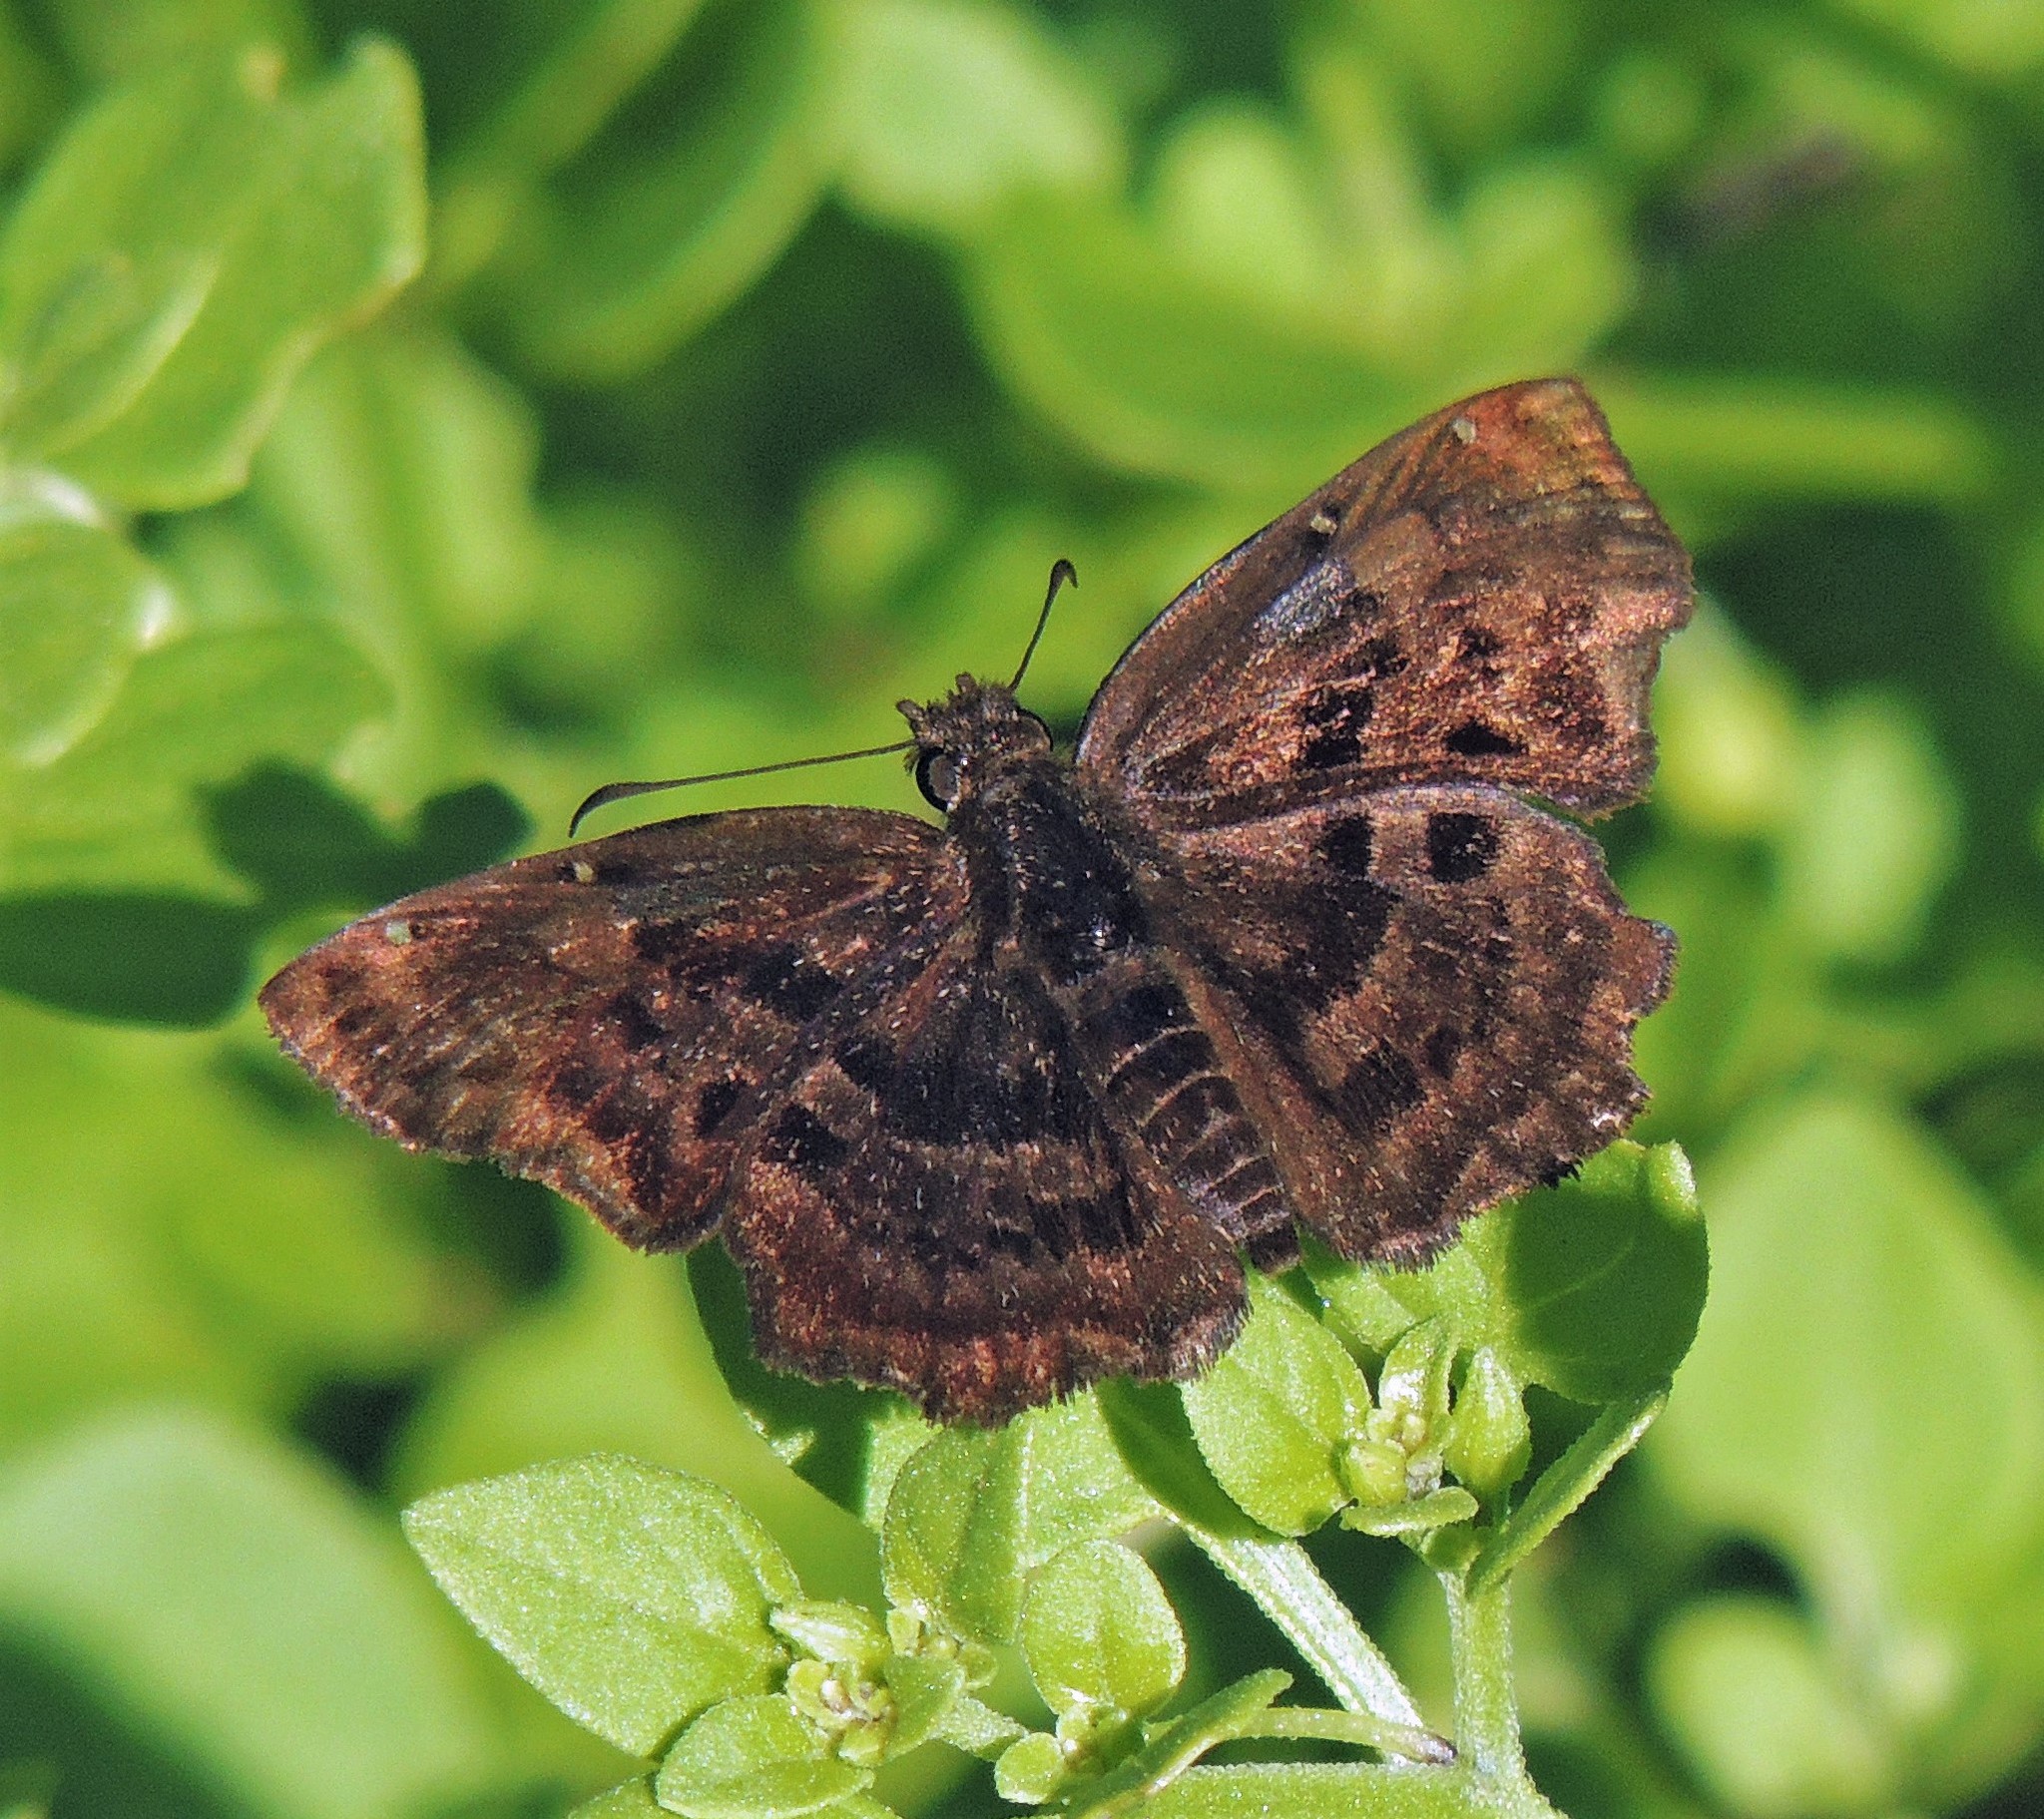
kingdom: Animalia
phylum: Arthropoda
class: Insecta
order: Lepidoptera
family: Hesperiidae
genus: Antigonus
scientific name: Antigonus liborius
